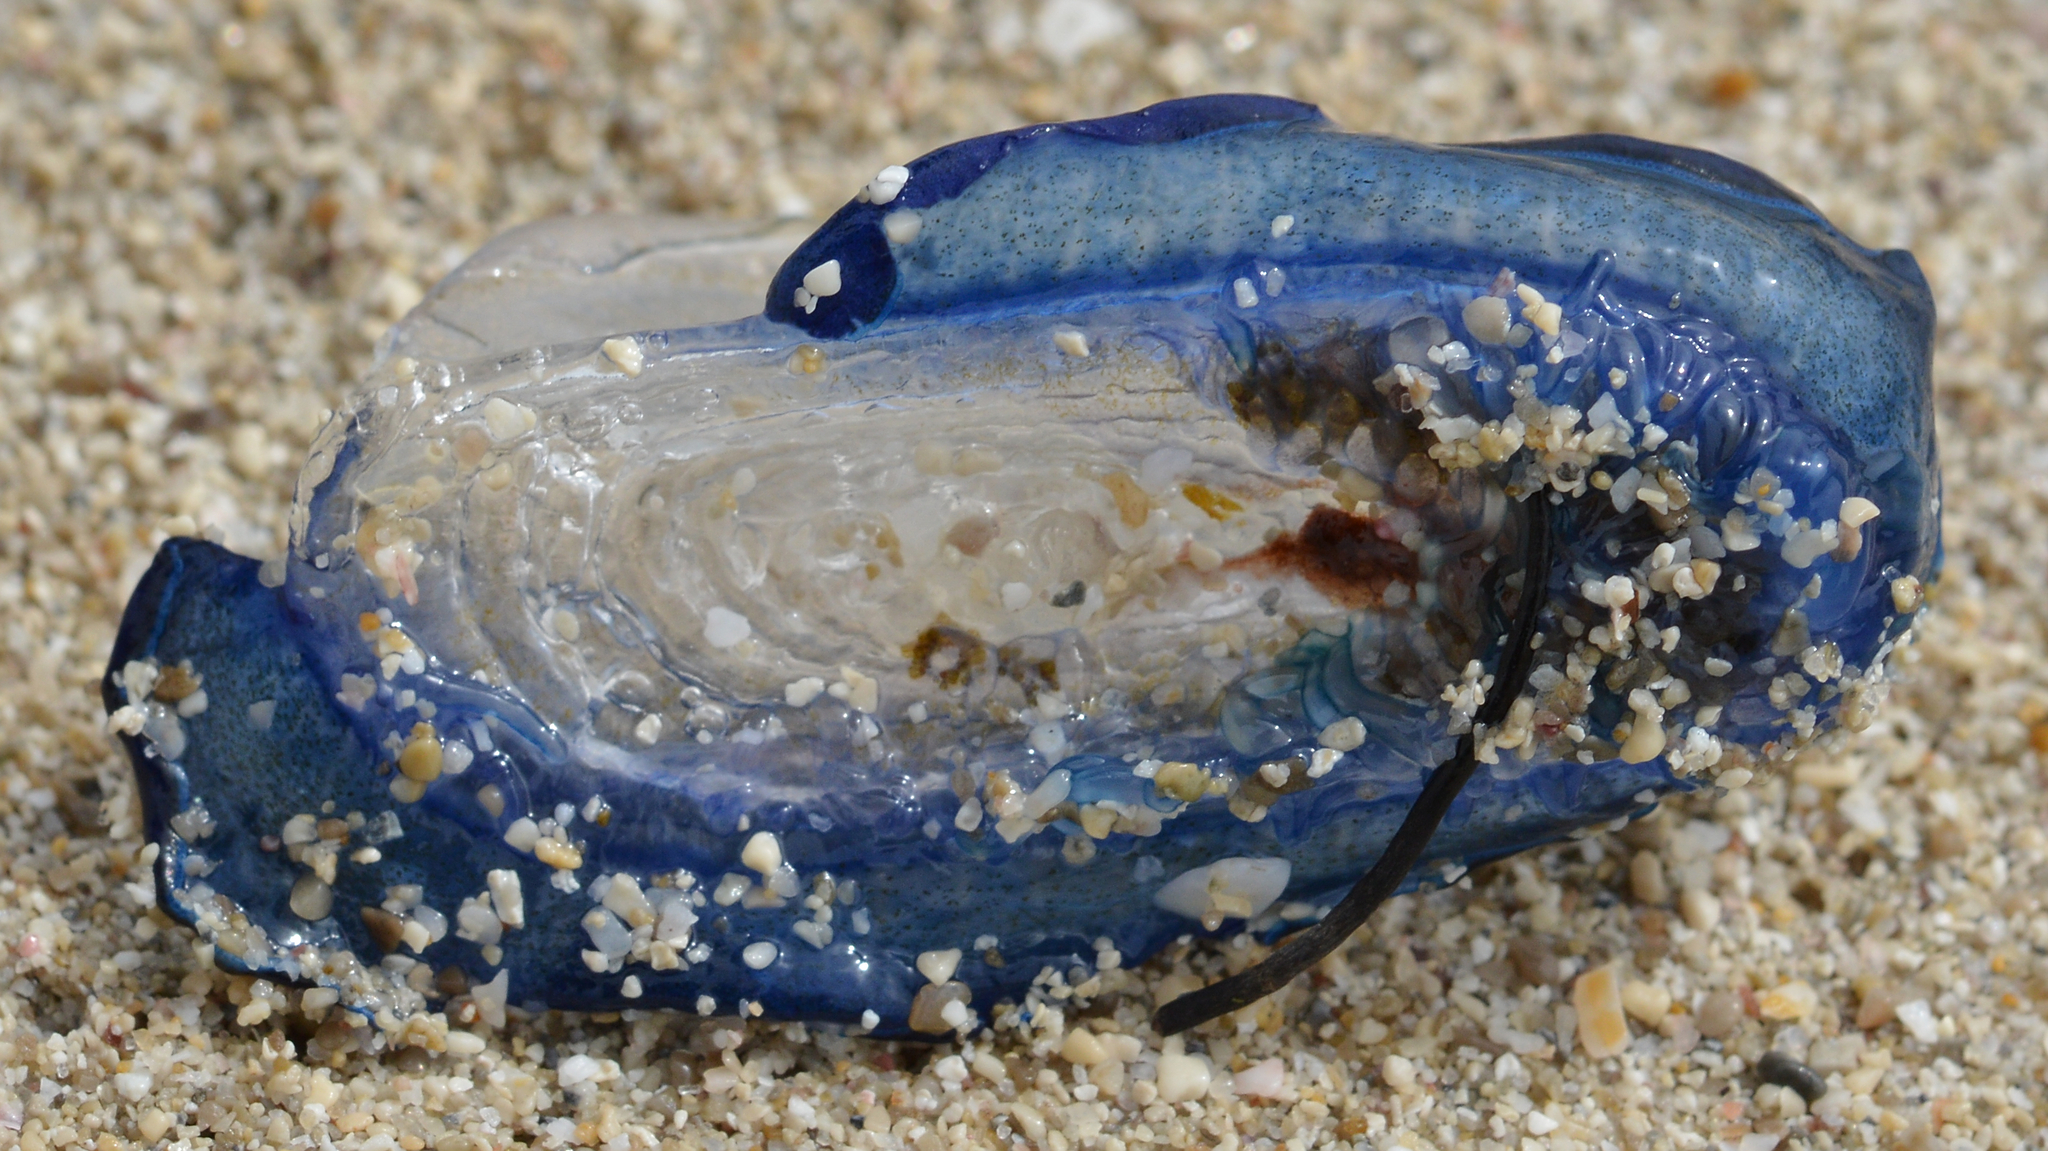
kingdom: Animalia
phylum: Cnidaria
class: Hydrozoa
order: Anthoathecata
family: Porpitidae
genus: Velella
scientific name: Velella velella
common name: By-the-wind-sailor
